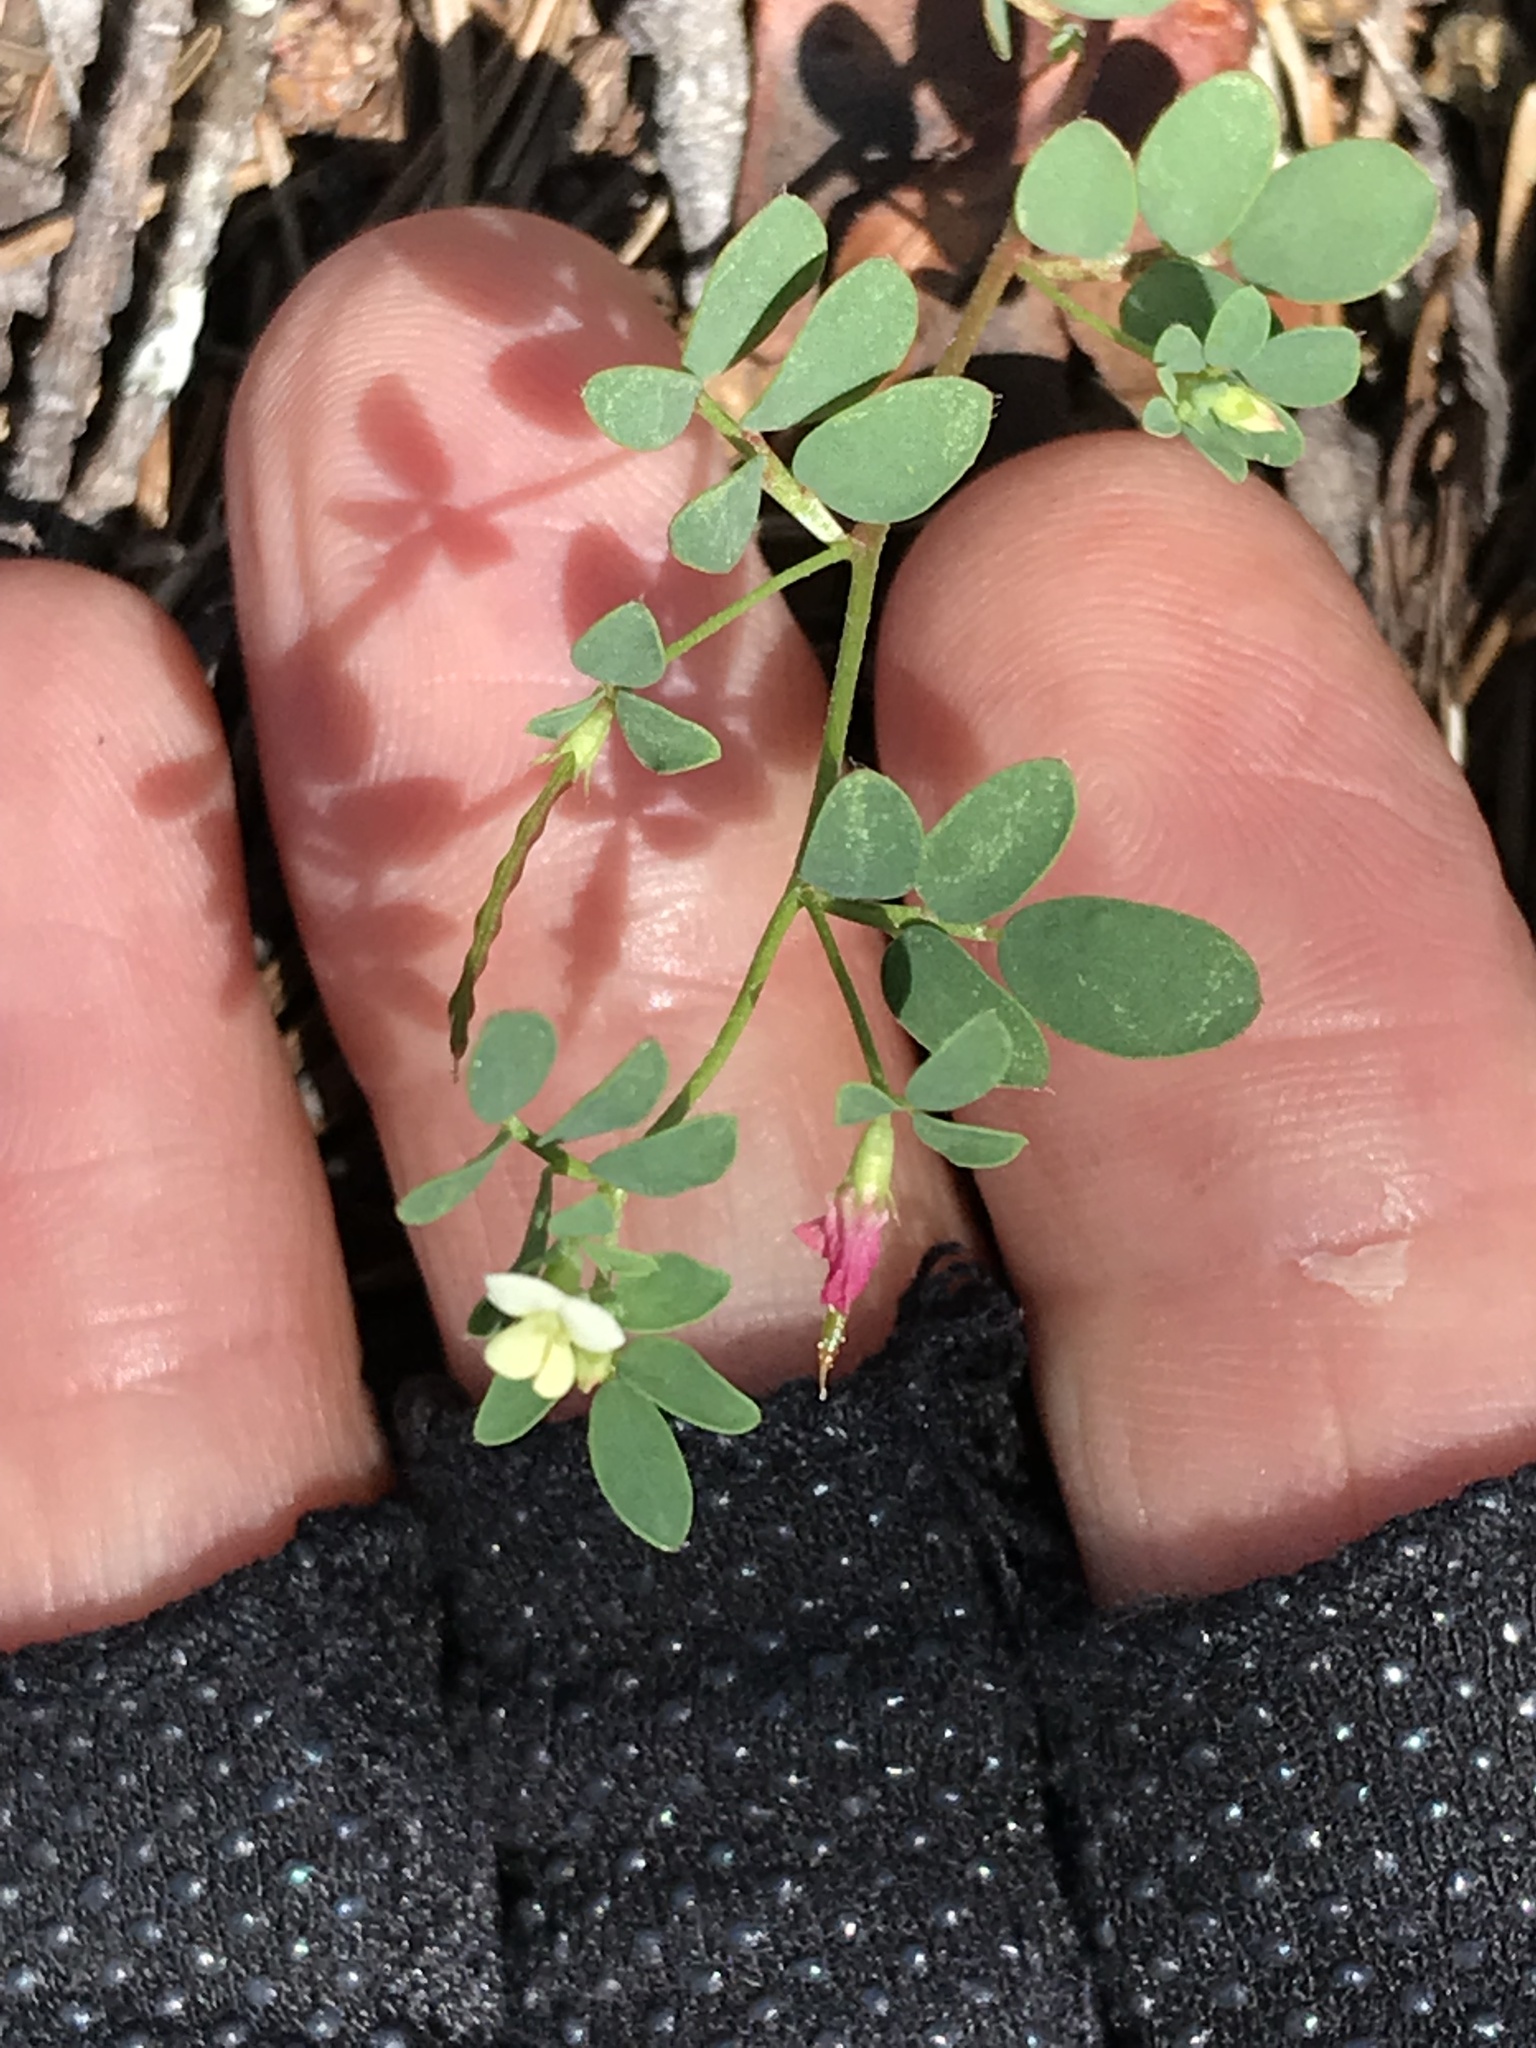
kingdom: Plantae
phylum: Tracheophyta
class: Magnoliopsida
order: Fabales
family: Fabaceae
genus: Acmispon
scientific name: Acmispon parviflorus
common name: Desert deer-vetch
